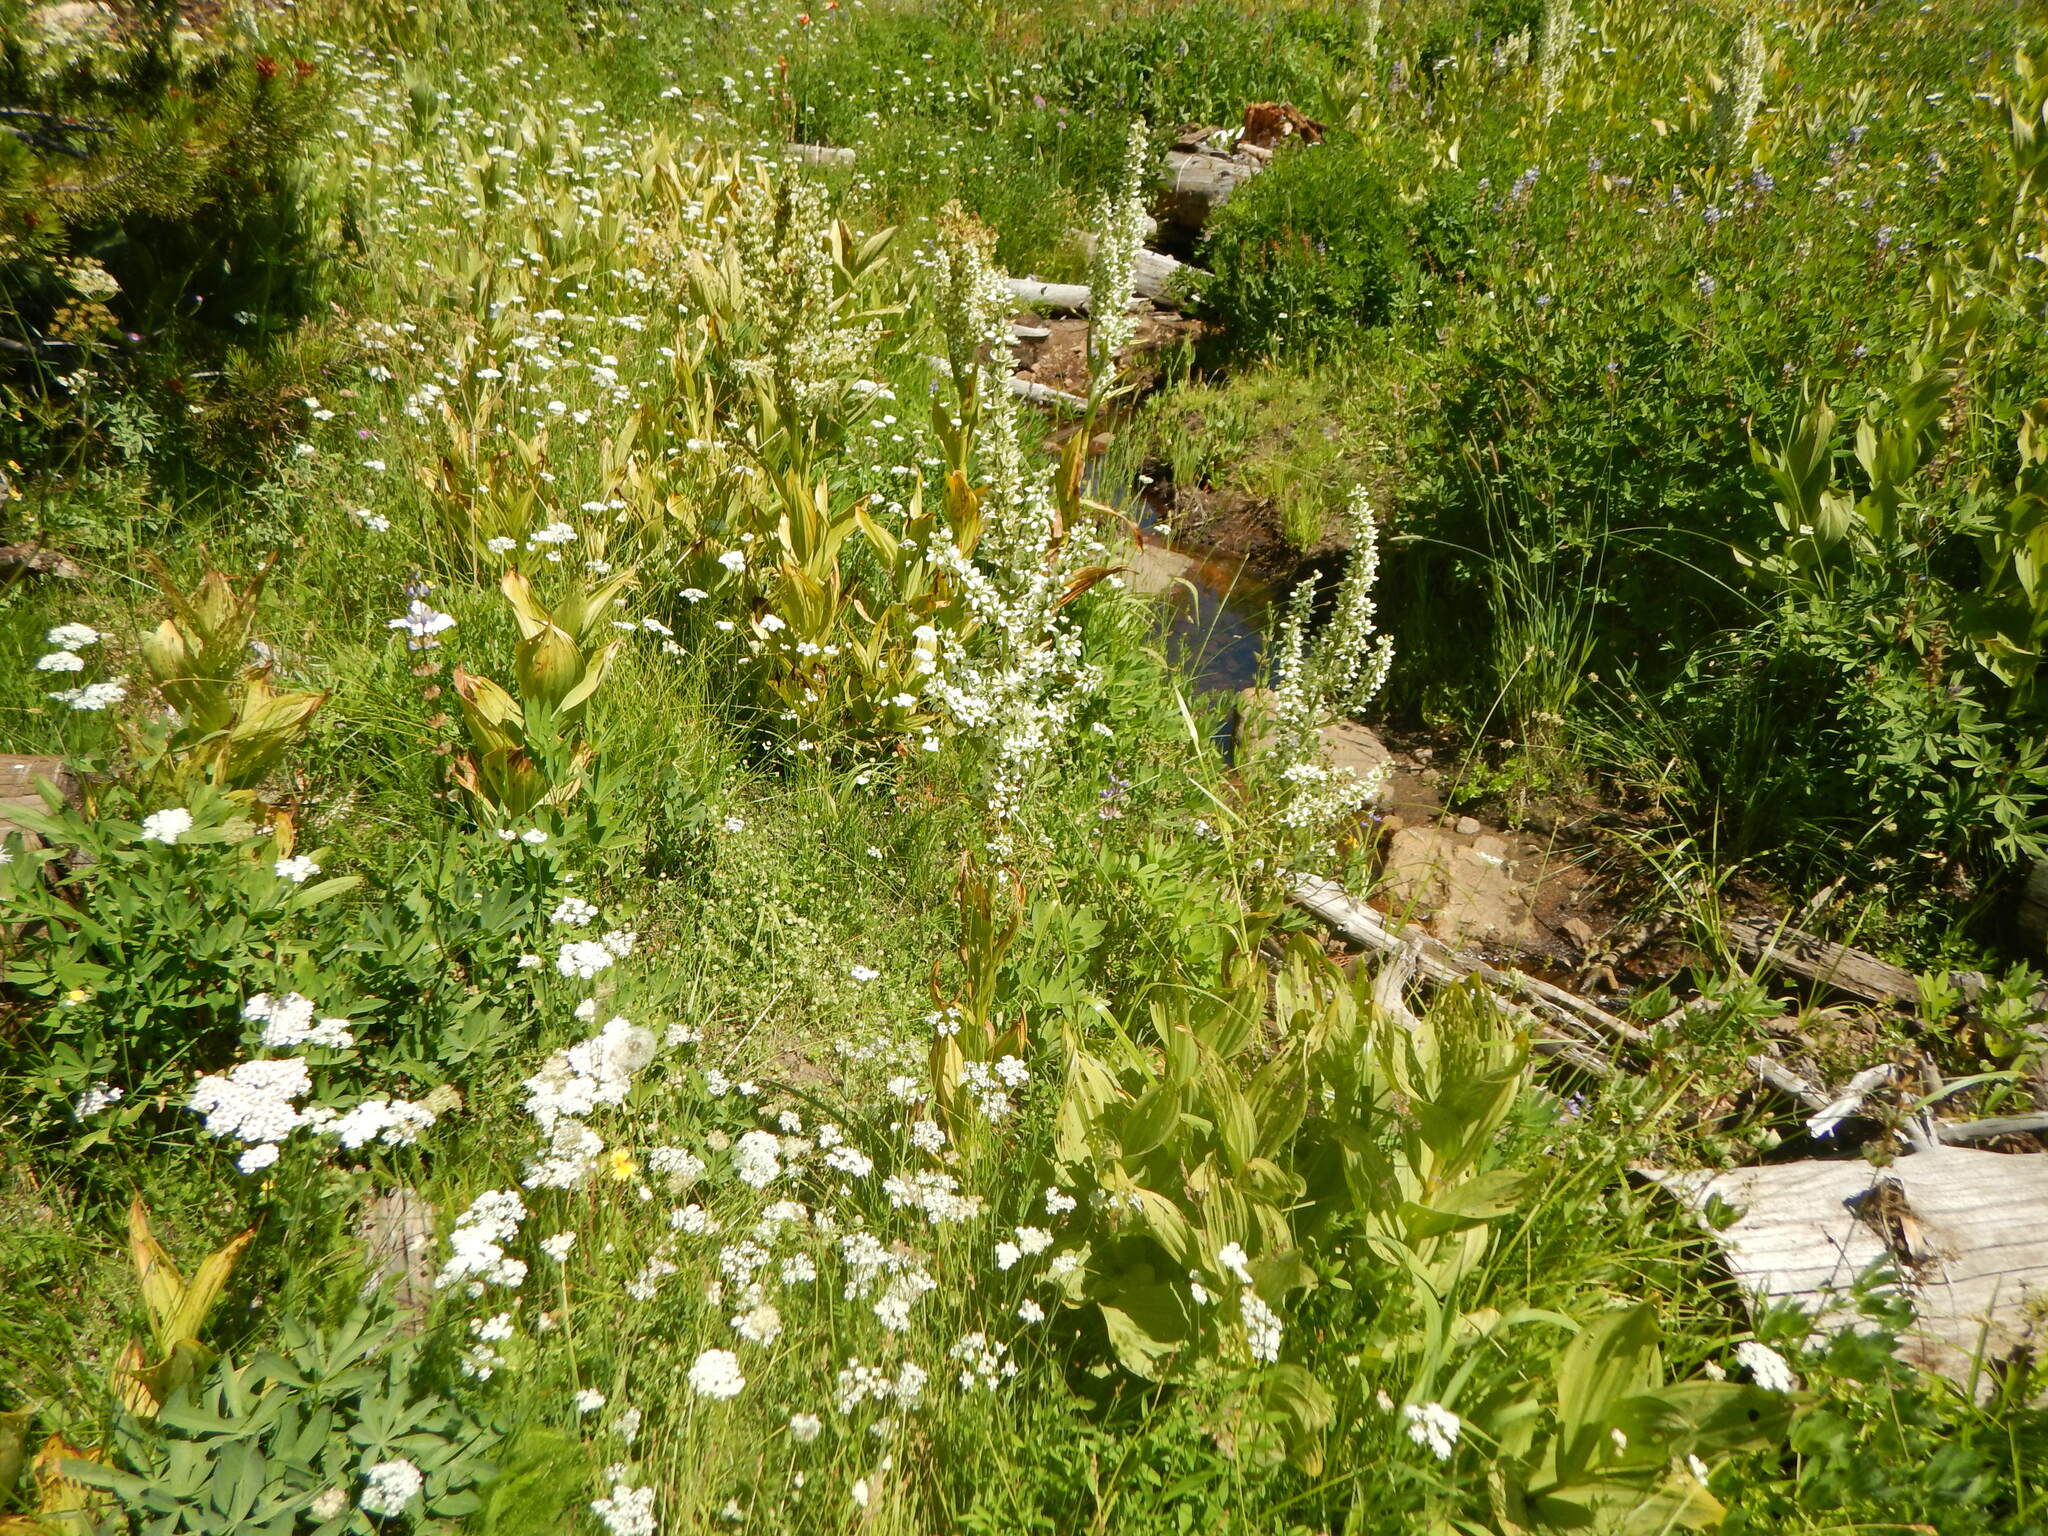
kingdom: Plantae
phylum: Tracheophyta
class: Liliopsida
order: Liliales
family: Melanthiaceae
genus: Veratrum
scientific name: Veratrum californicum
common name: California veratrum
